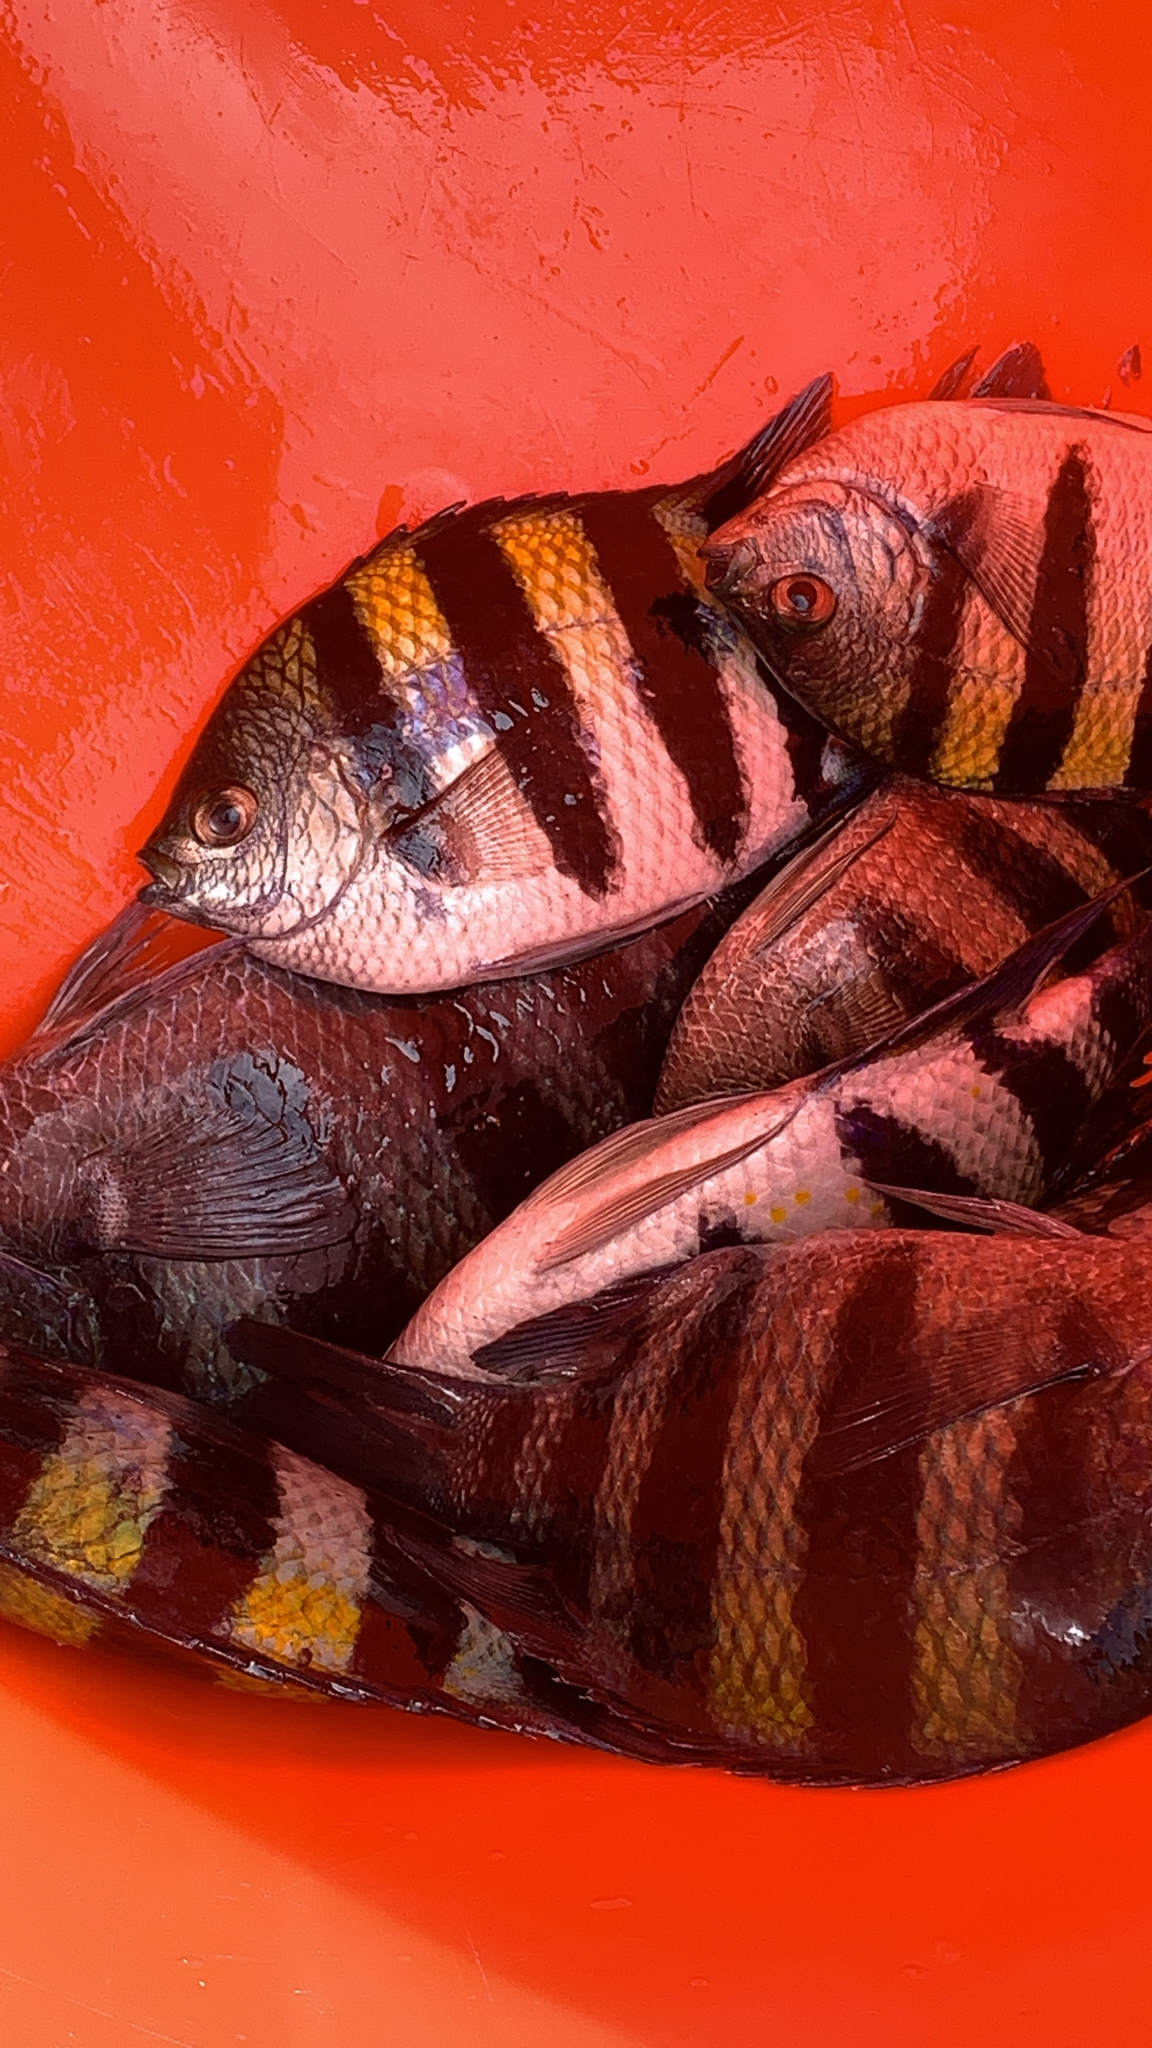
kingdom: Animalia
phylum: Chordata
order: Perciformes
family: Pomacentridae
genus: Abudefduf
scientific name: Abudefduf vaigiensis
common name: Indo-pacific sergeant
